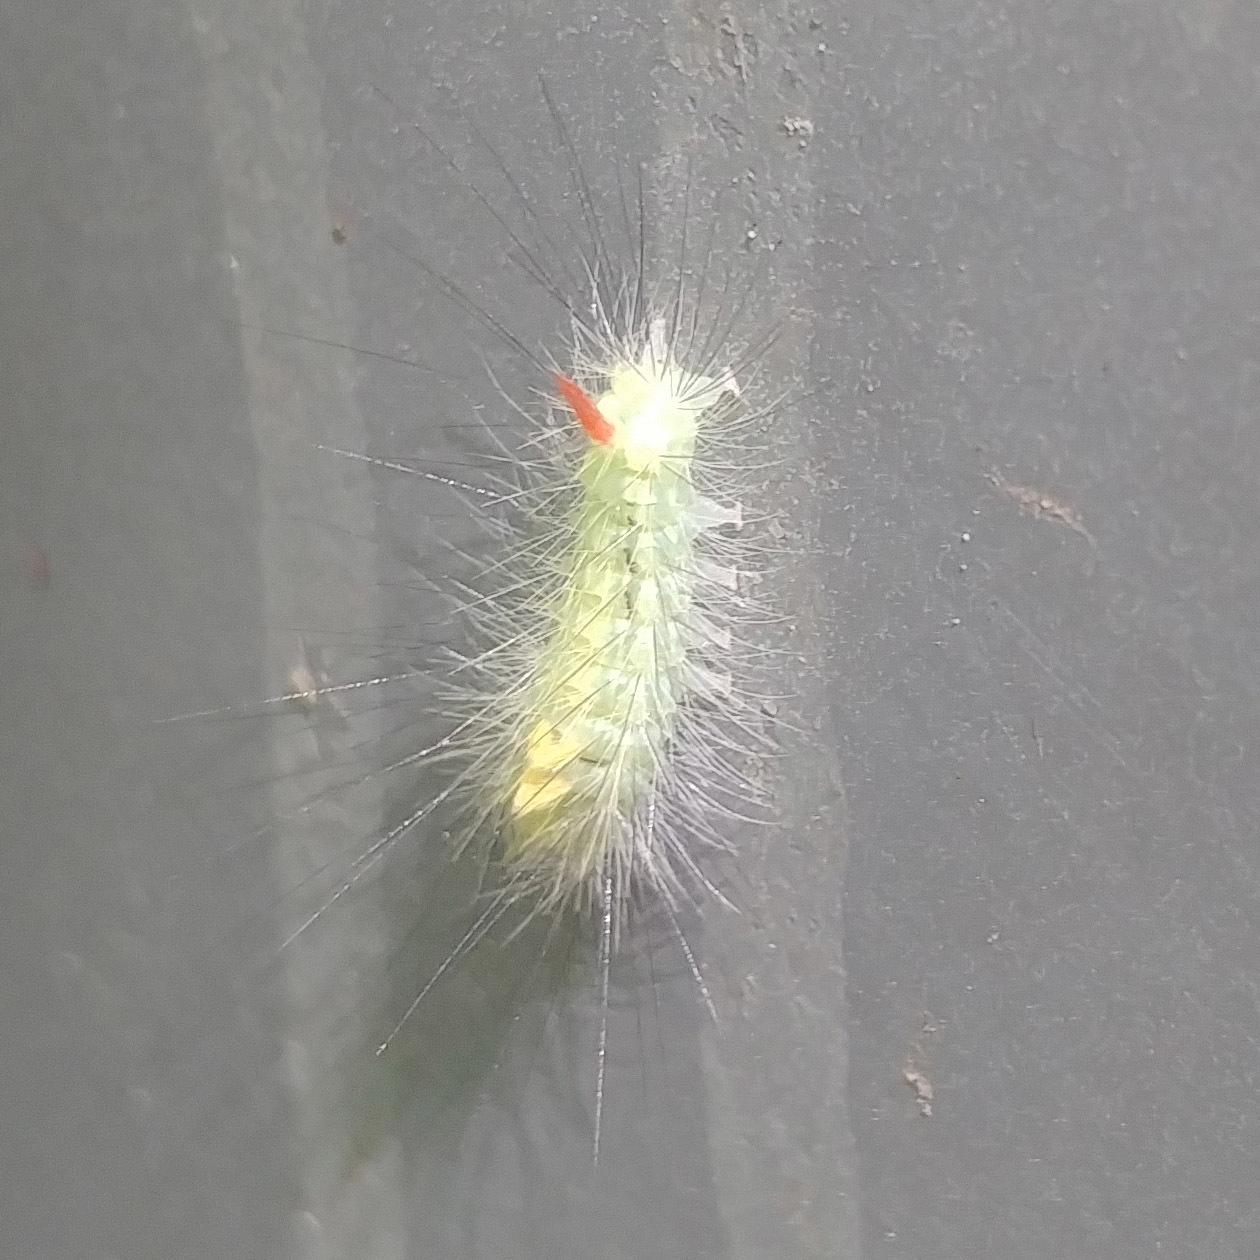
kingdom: Animalia
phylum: Arthropoda
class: Insecta
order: Lepidoptera
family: Erebidae
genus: Calliteara
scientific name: Calliteara pudibunda
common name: Pale tussock
